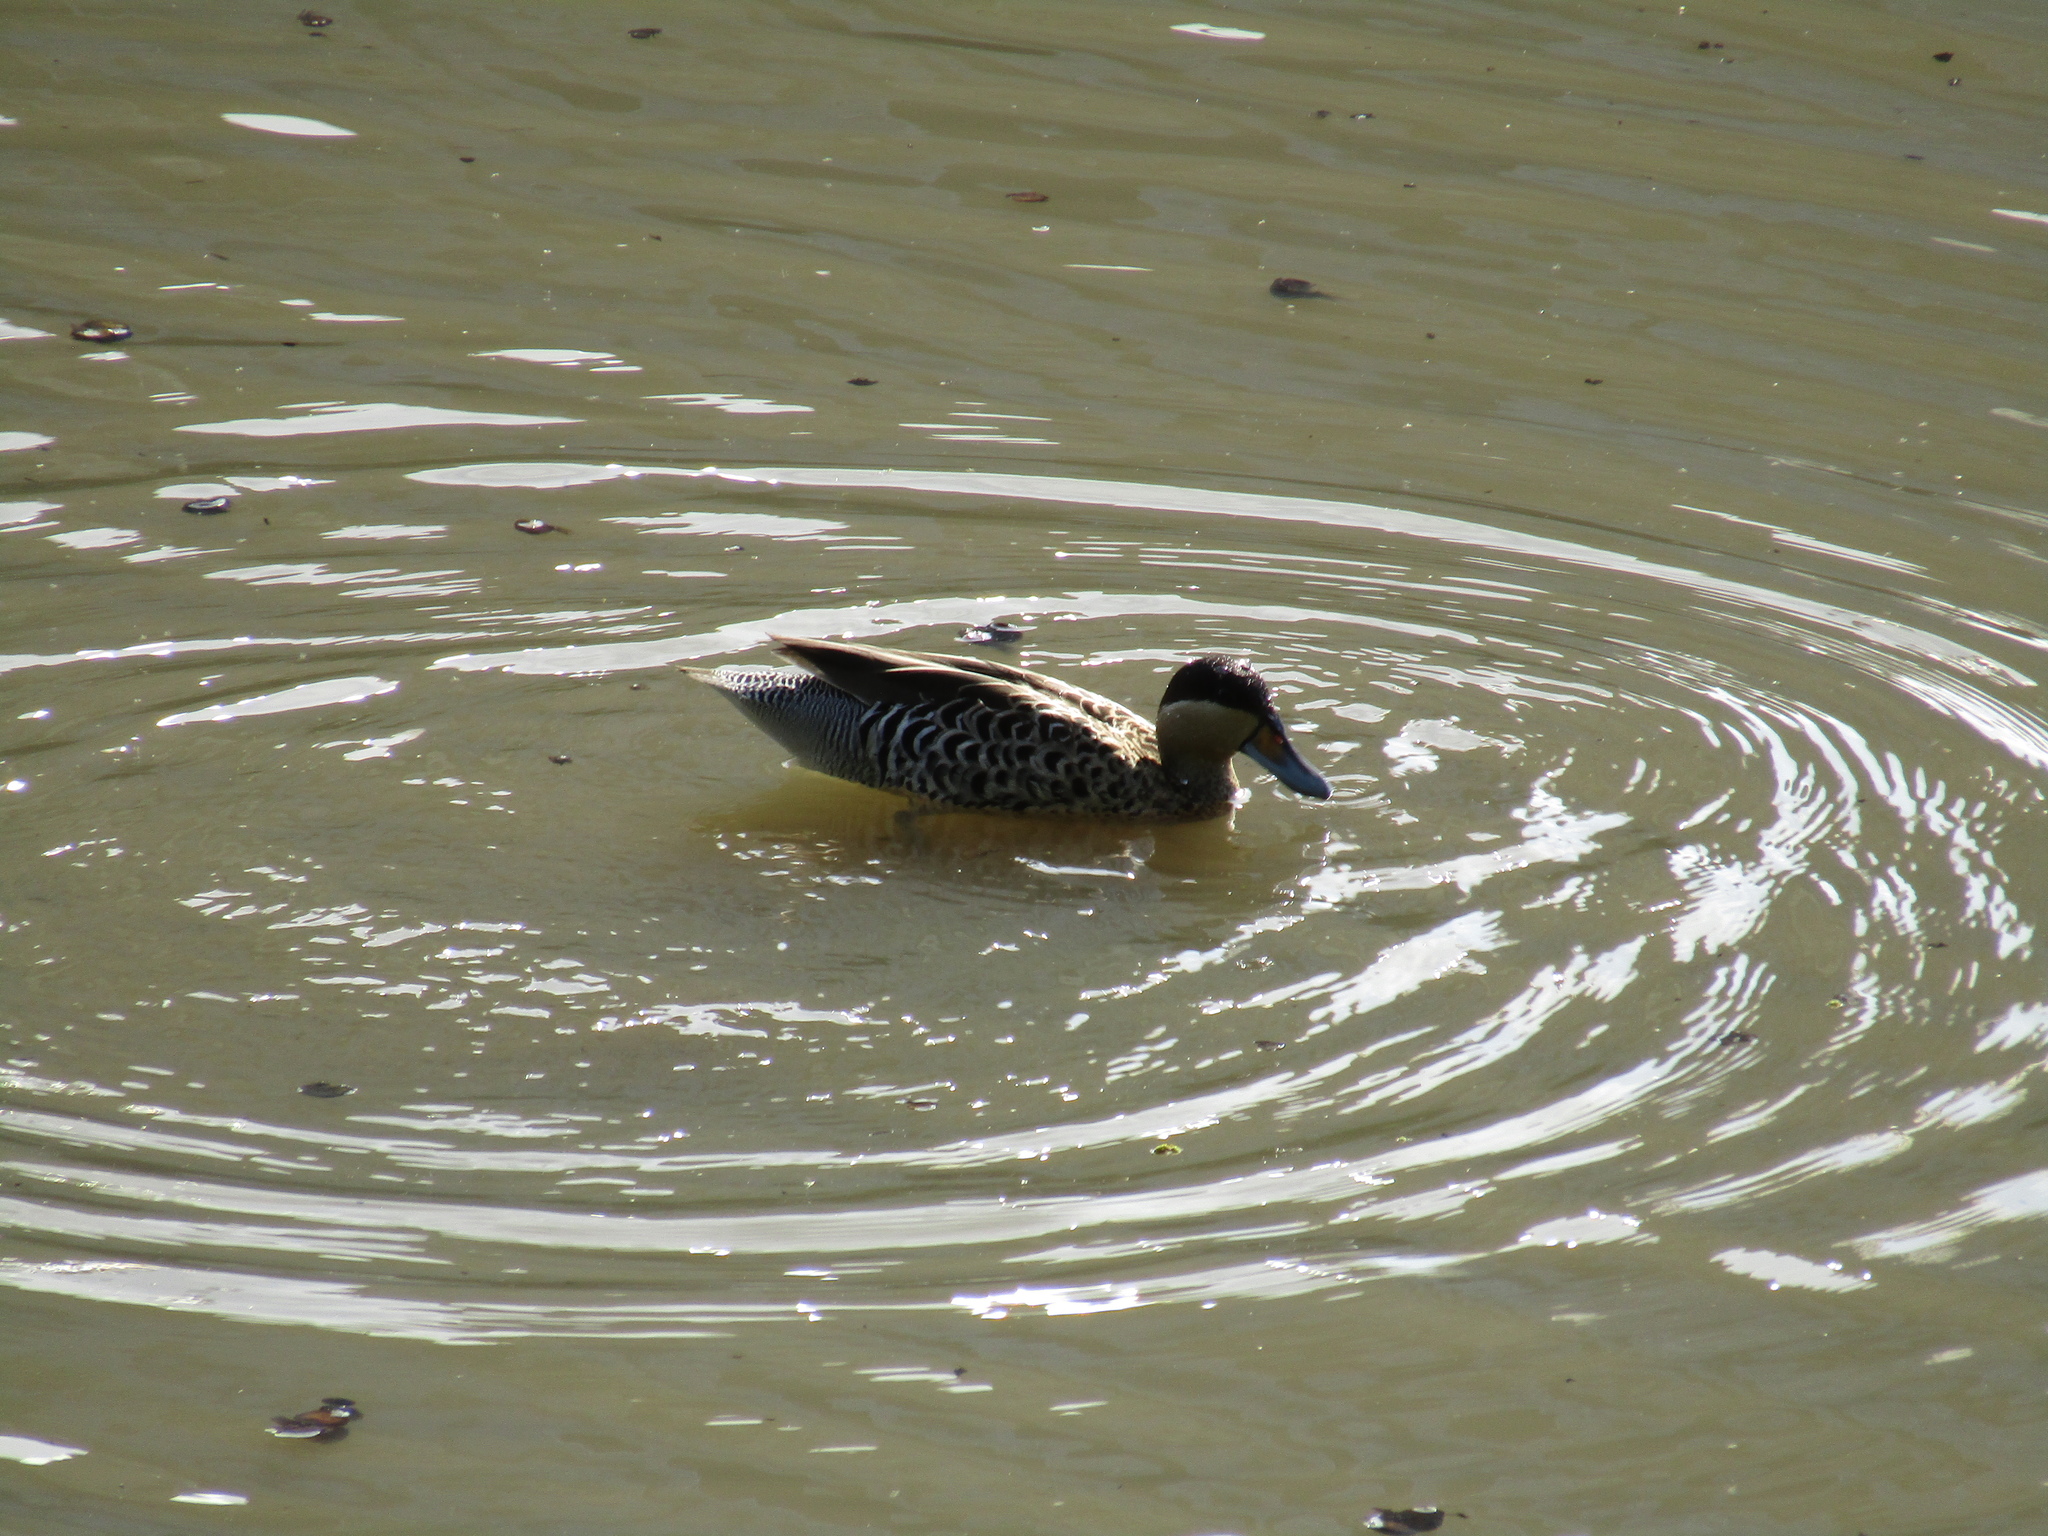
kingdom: Animalia
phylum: Chordata
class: Aves
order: Anseriformes
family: Anatidae
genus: Spatula
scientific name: Spatula versicolor
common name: Silver teal
